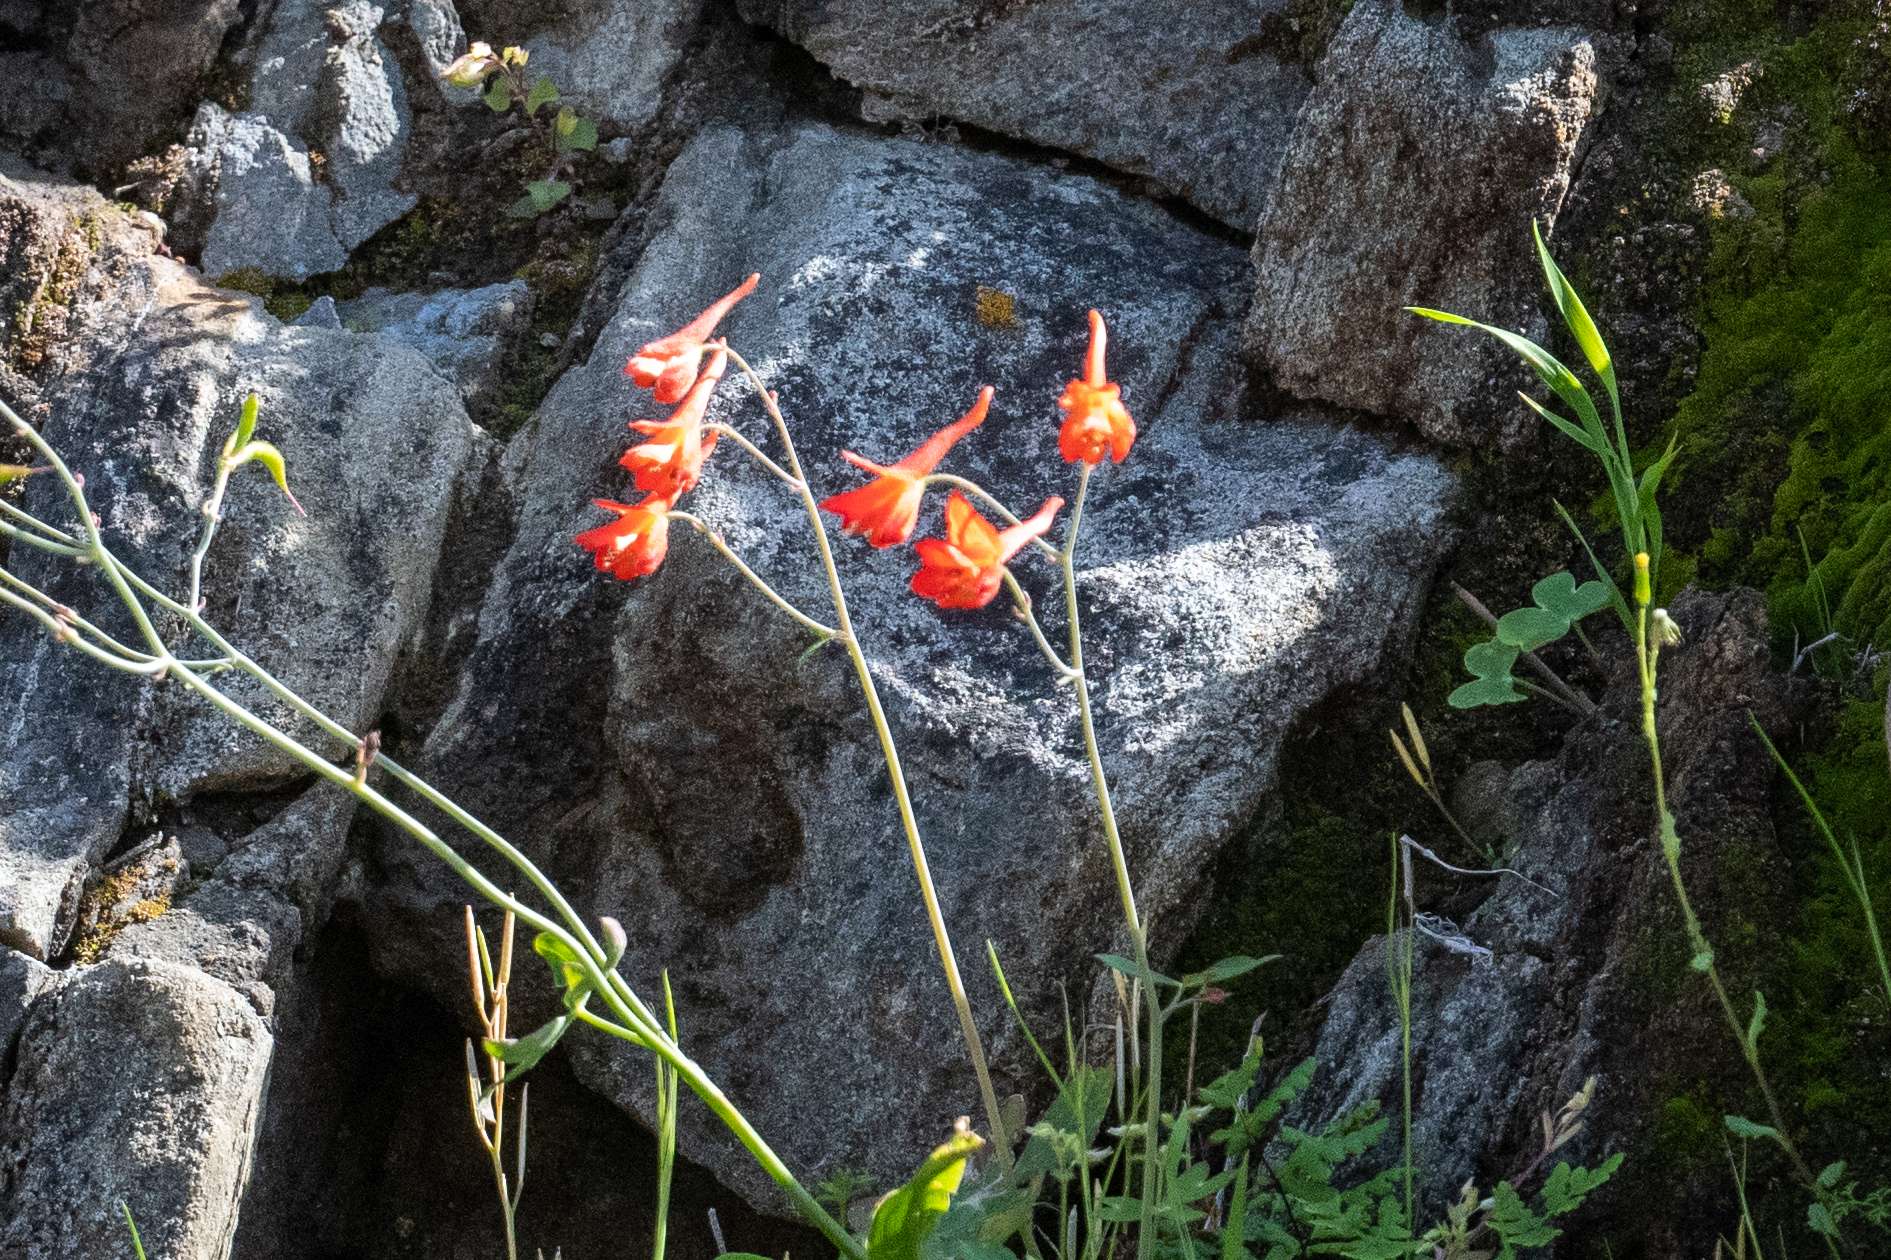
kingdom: Plantae
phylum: Tracheophyta
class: Magnoliopsida
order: Ranunculales
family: Ranunculaceae
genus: Delphinium
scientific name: Delphinium nudicaule
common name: Red larkspur
